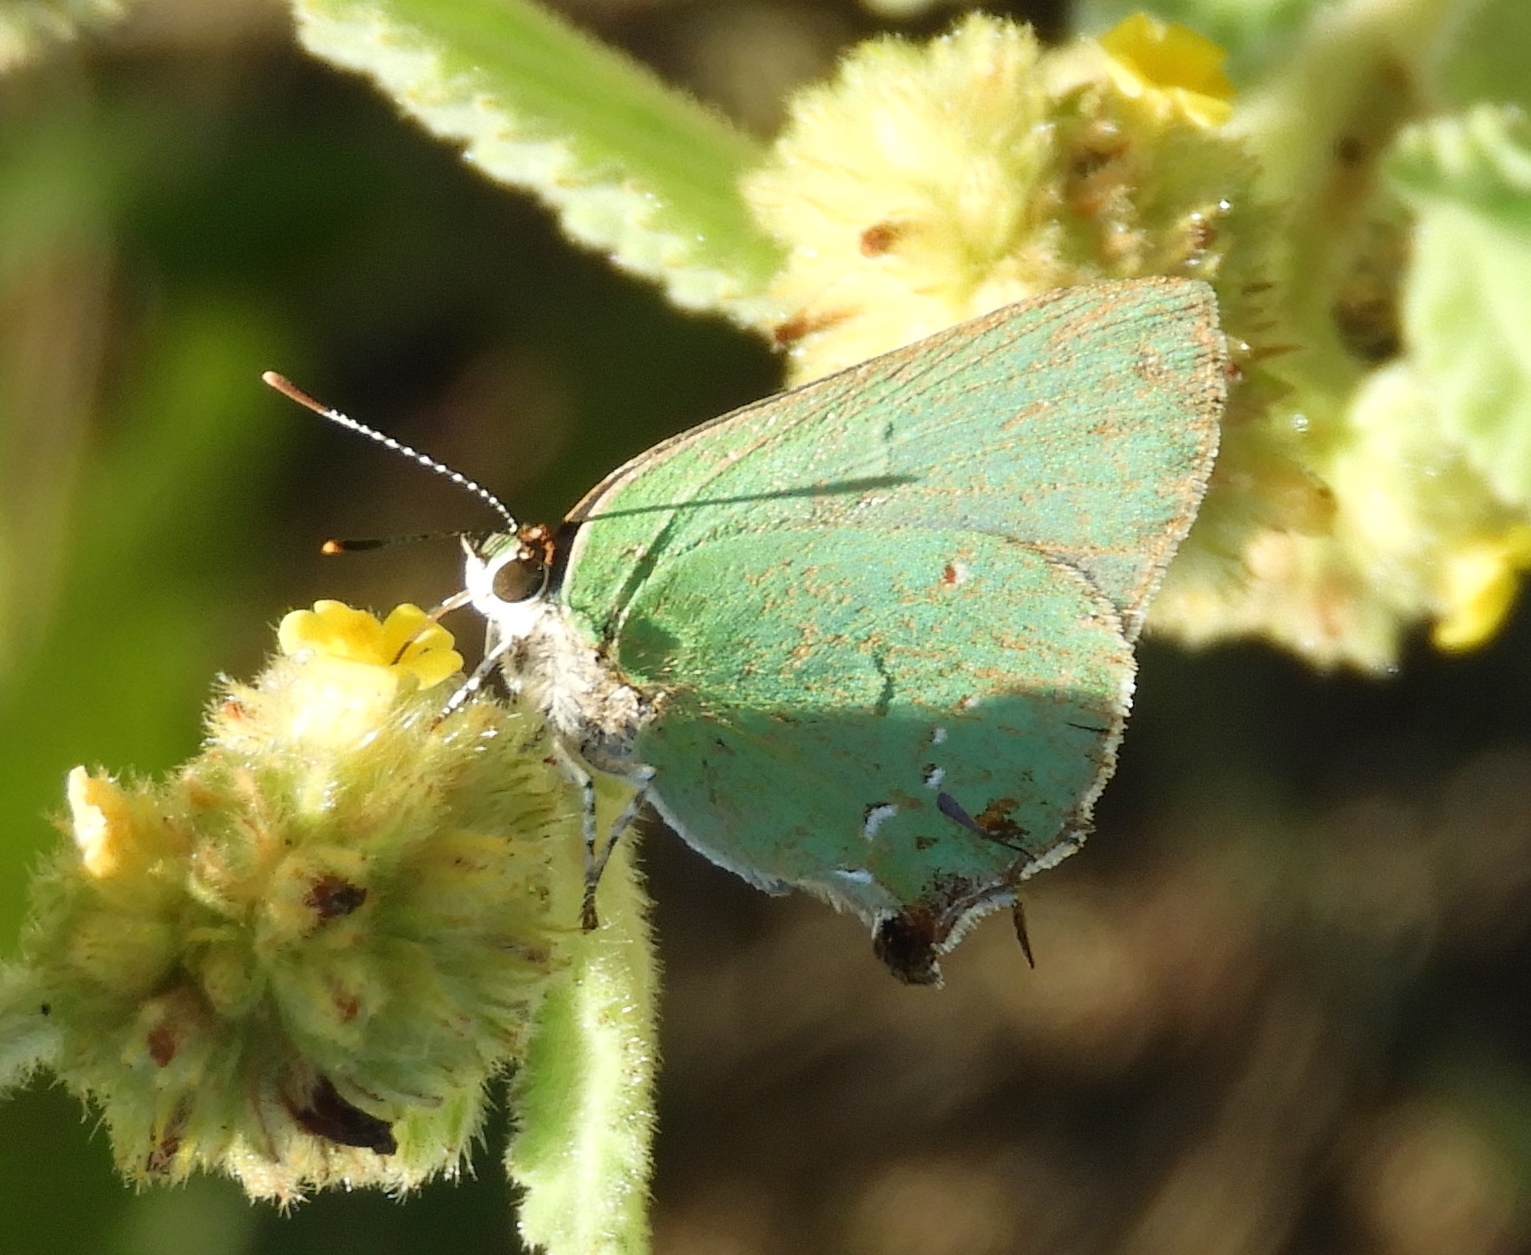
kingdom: Animalia
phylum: Arthropoda
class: Insecta
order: Lepidoptera
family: Lycaenidae
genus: Thecla
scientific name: Thecla amyntor
